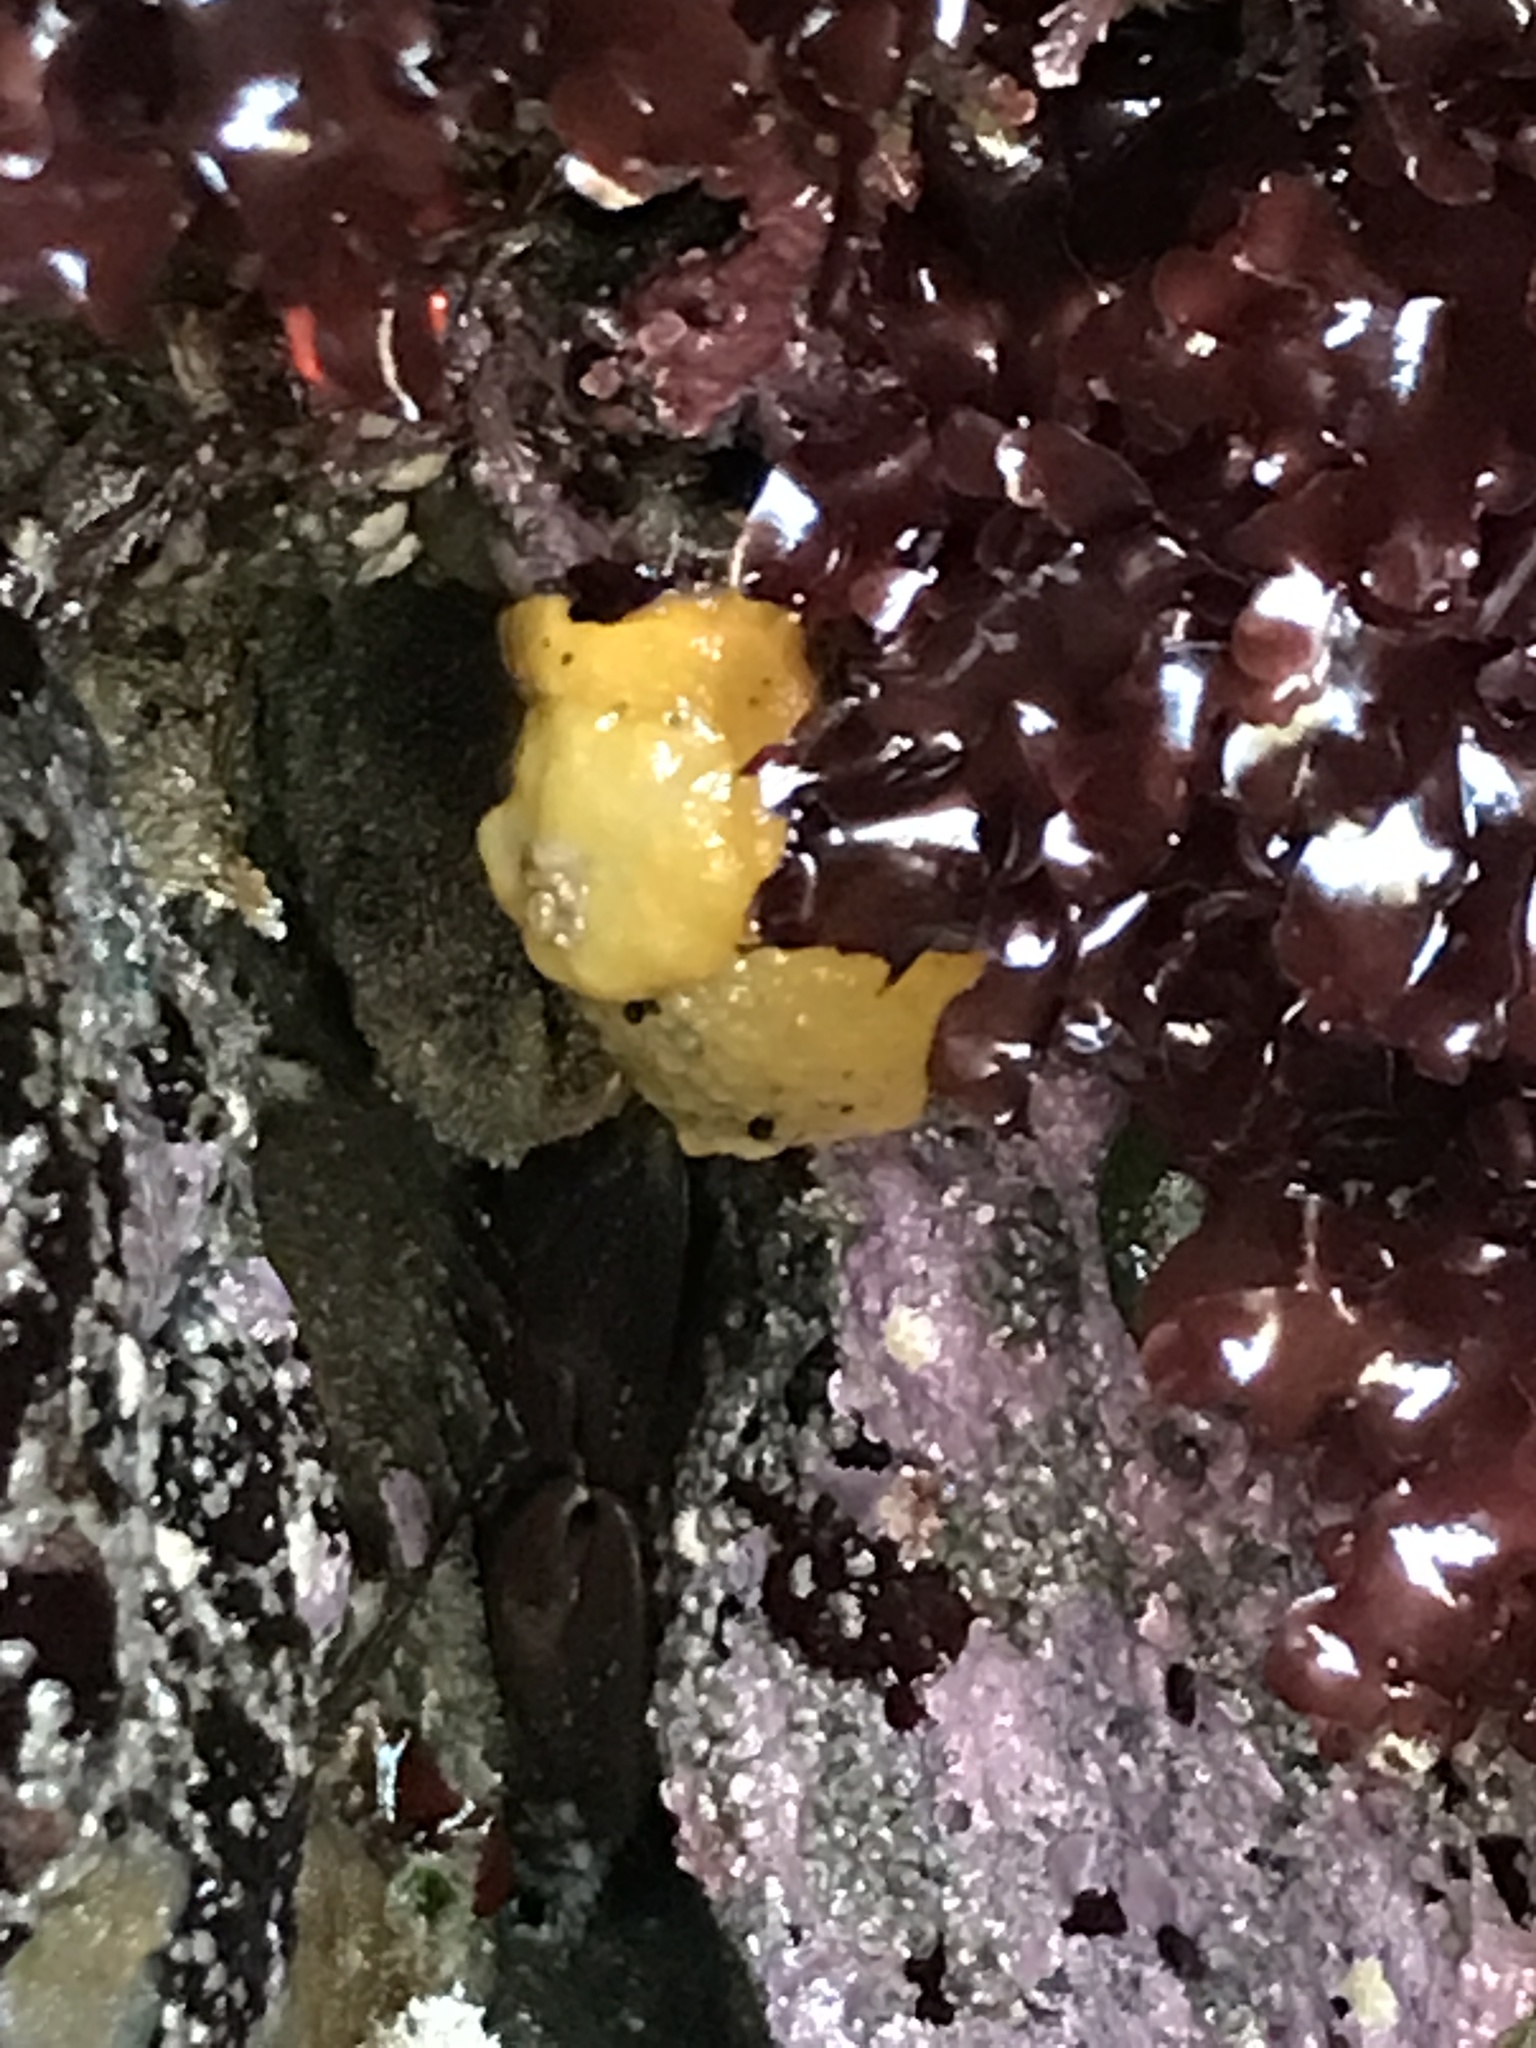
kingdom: Animalia
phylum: Mollusca
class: Gastropoda
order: Nudibranchia
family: Dorididae
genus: Doris
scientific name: Doris montereyensis
